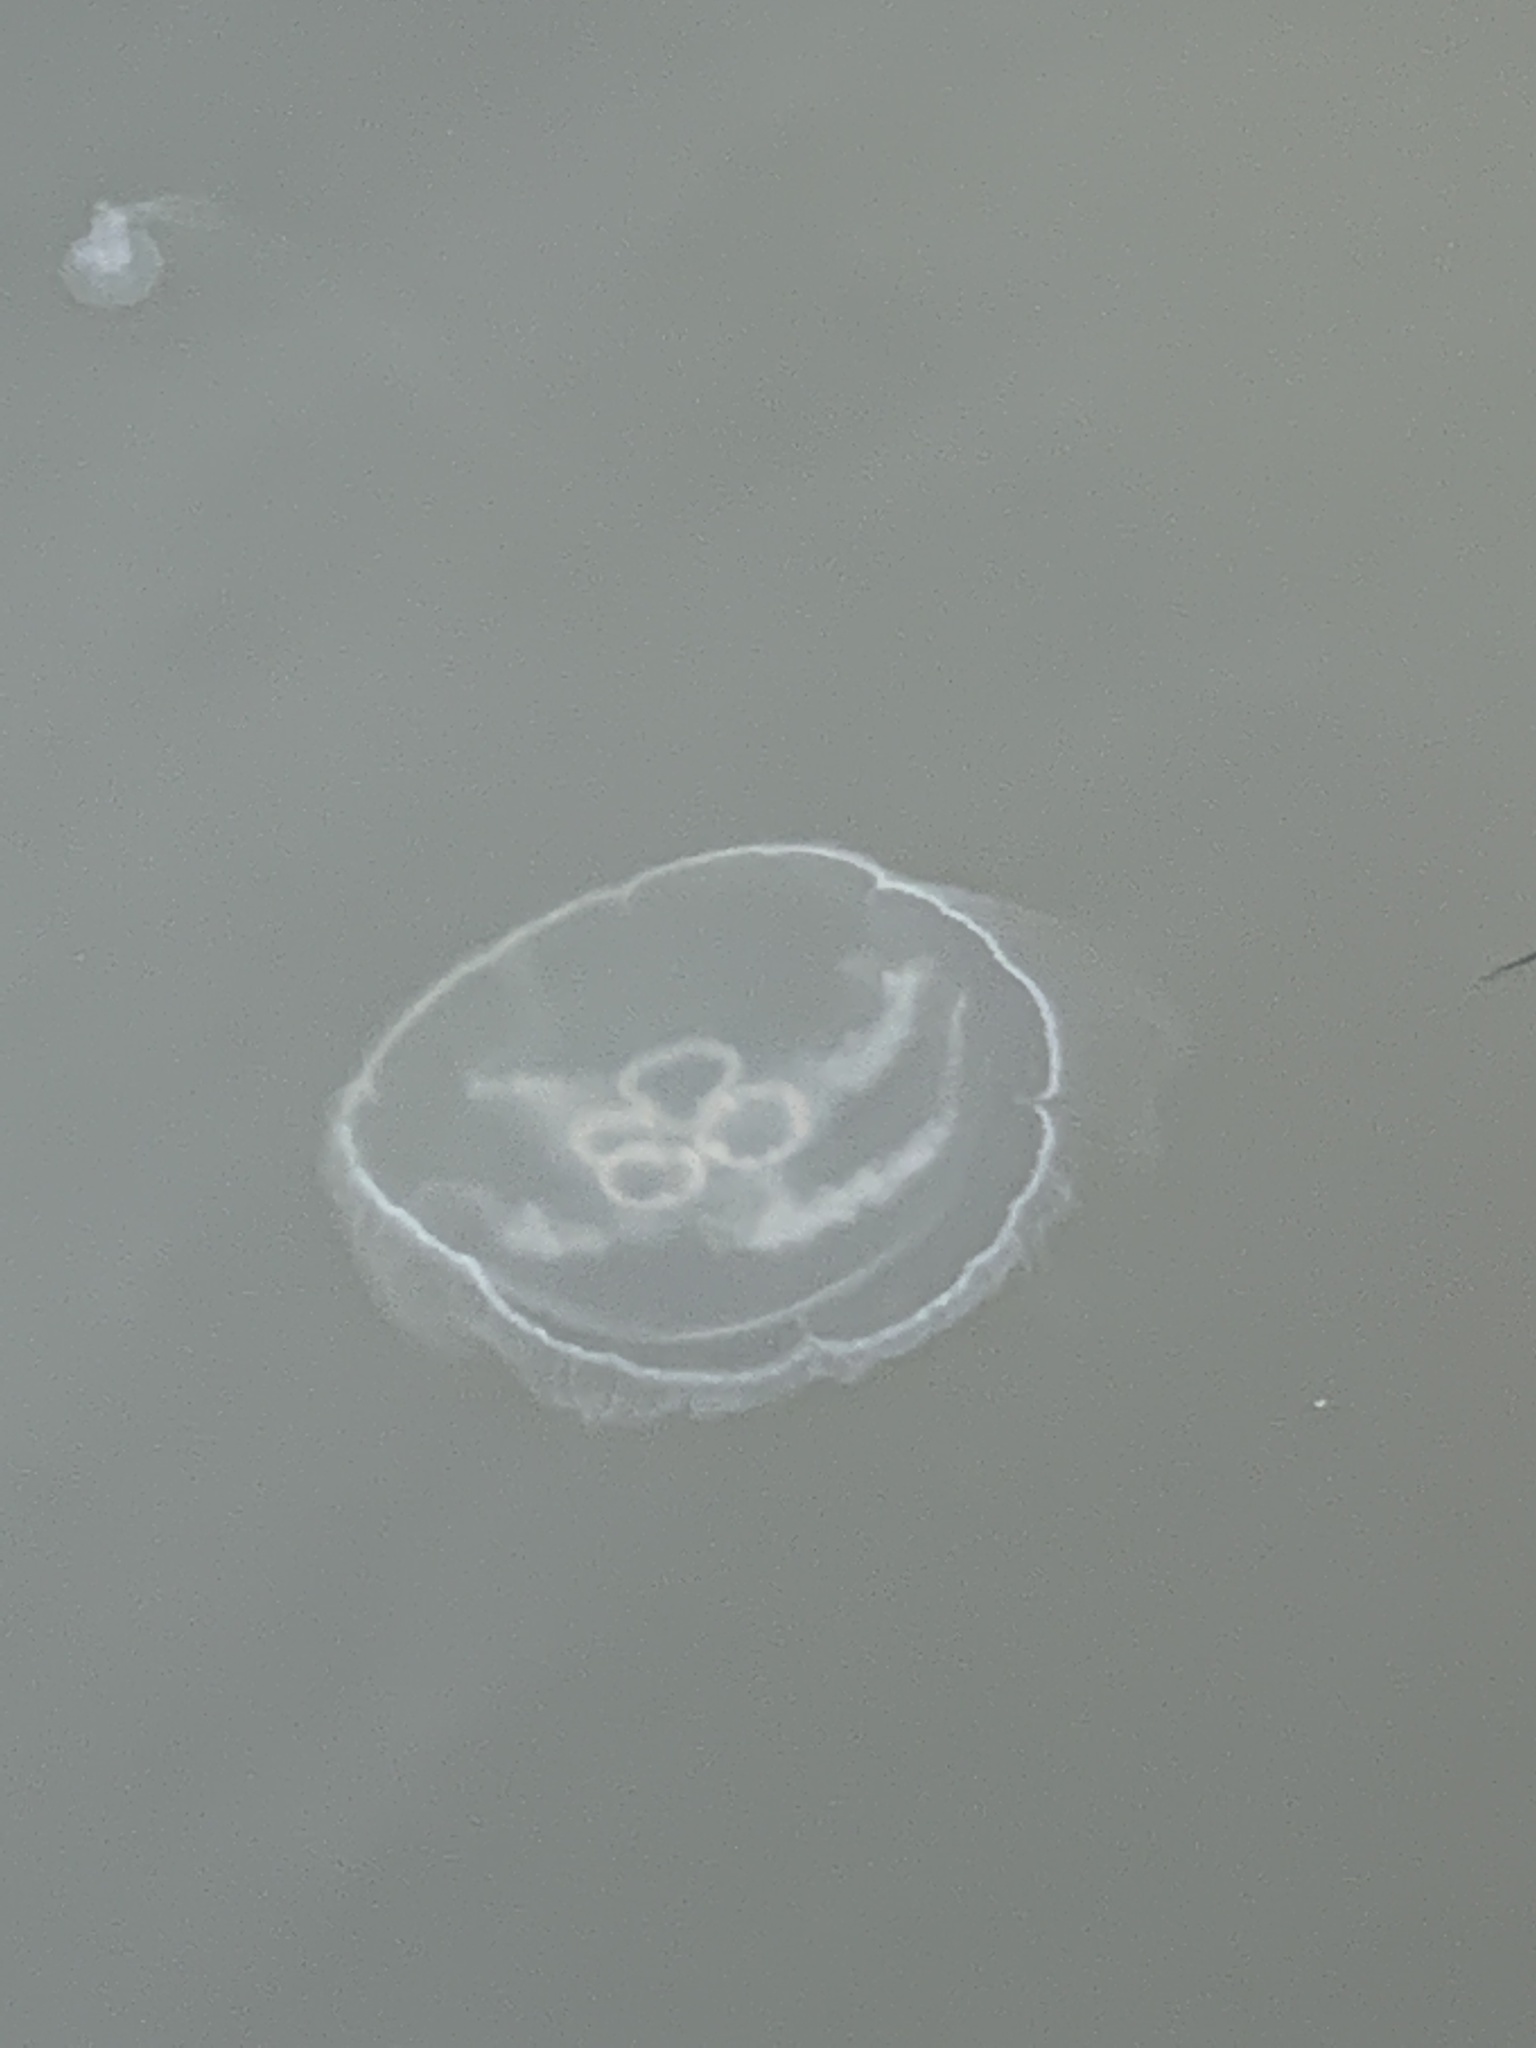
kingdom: Animalia
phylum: Cnidaria
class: Scyphozoa
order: Semaeostomeae
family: Ulmaridae
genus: Aurelia
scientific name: Aurelia aurita
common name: Moon jellyfish
